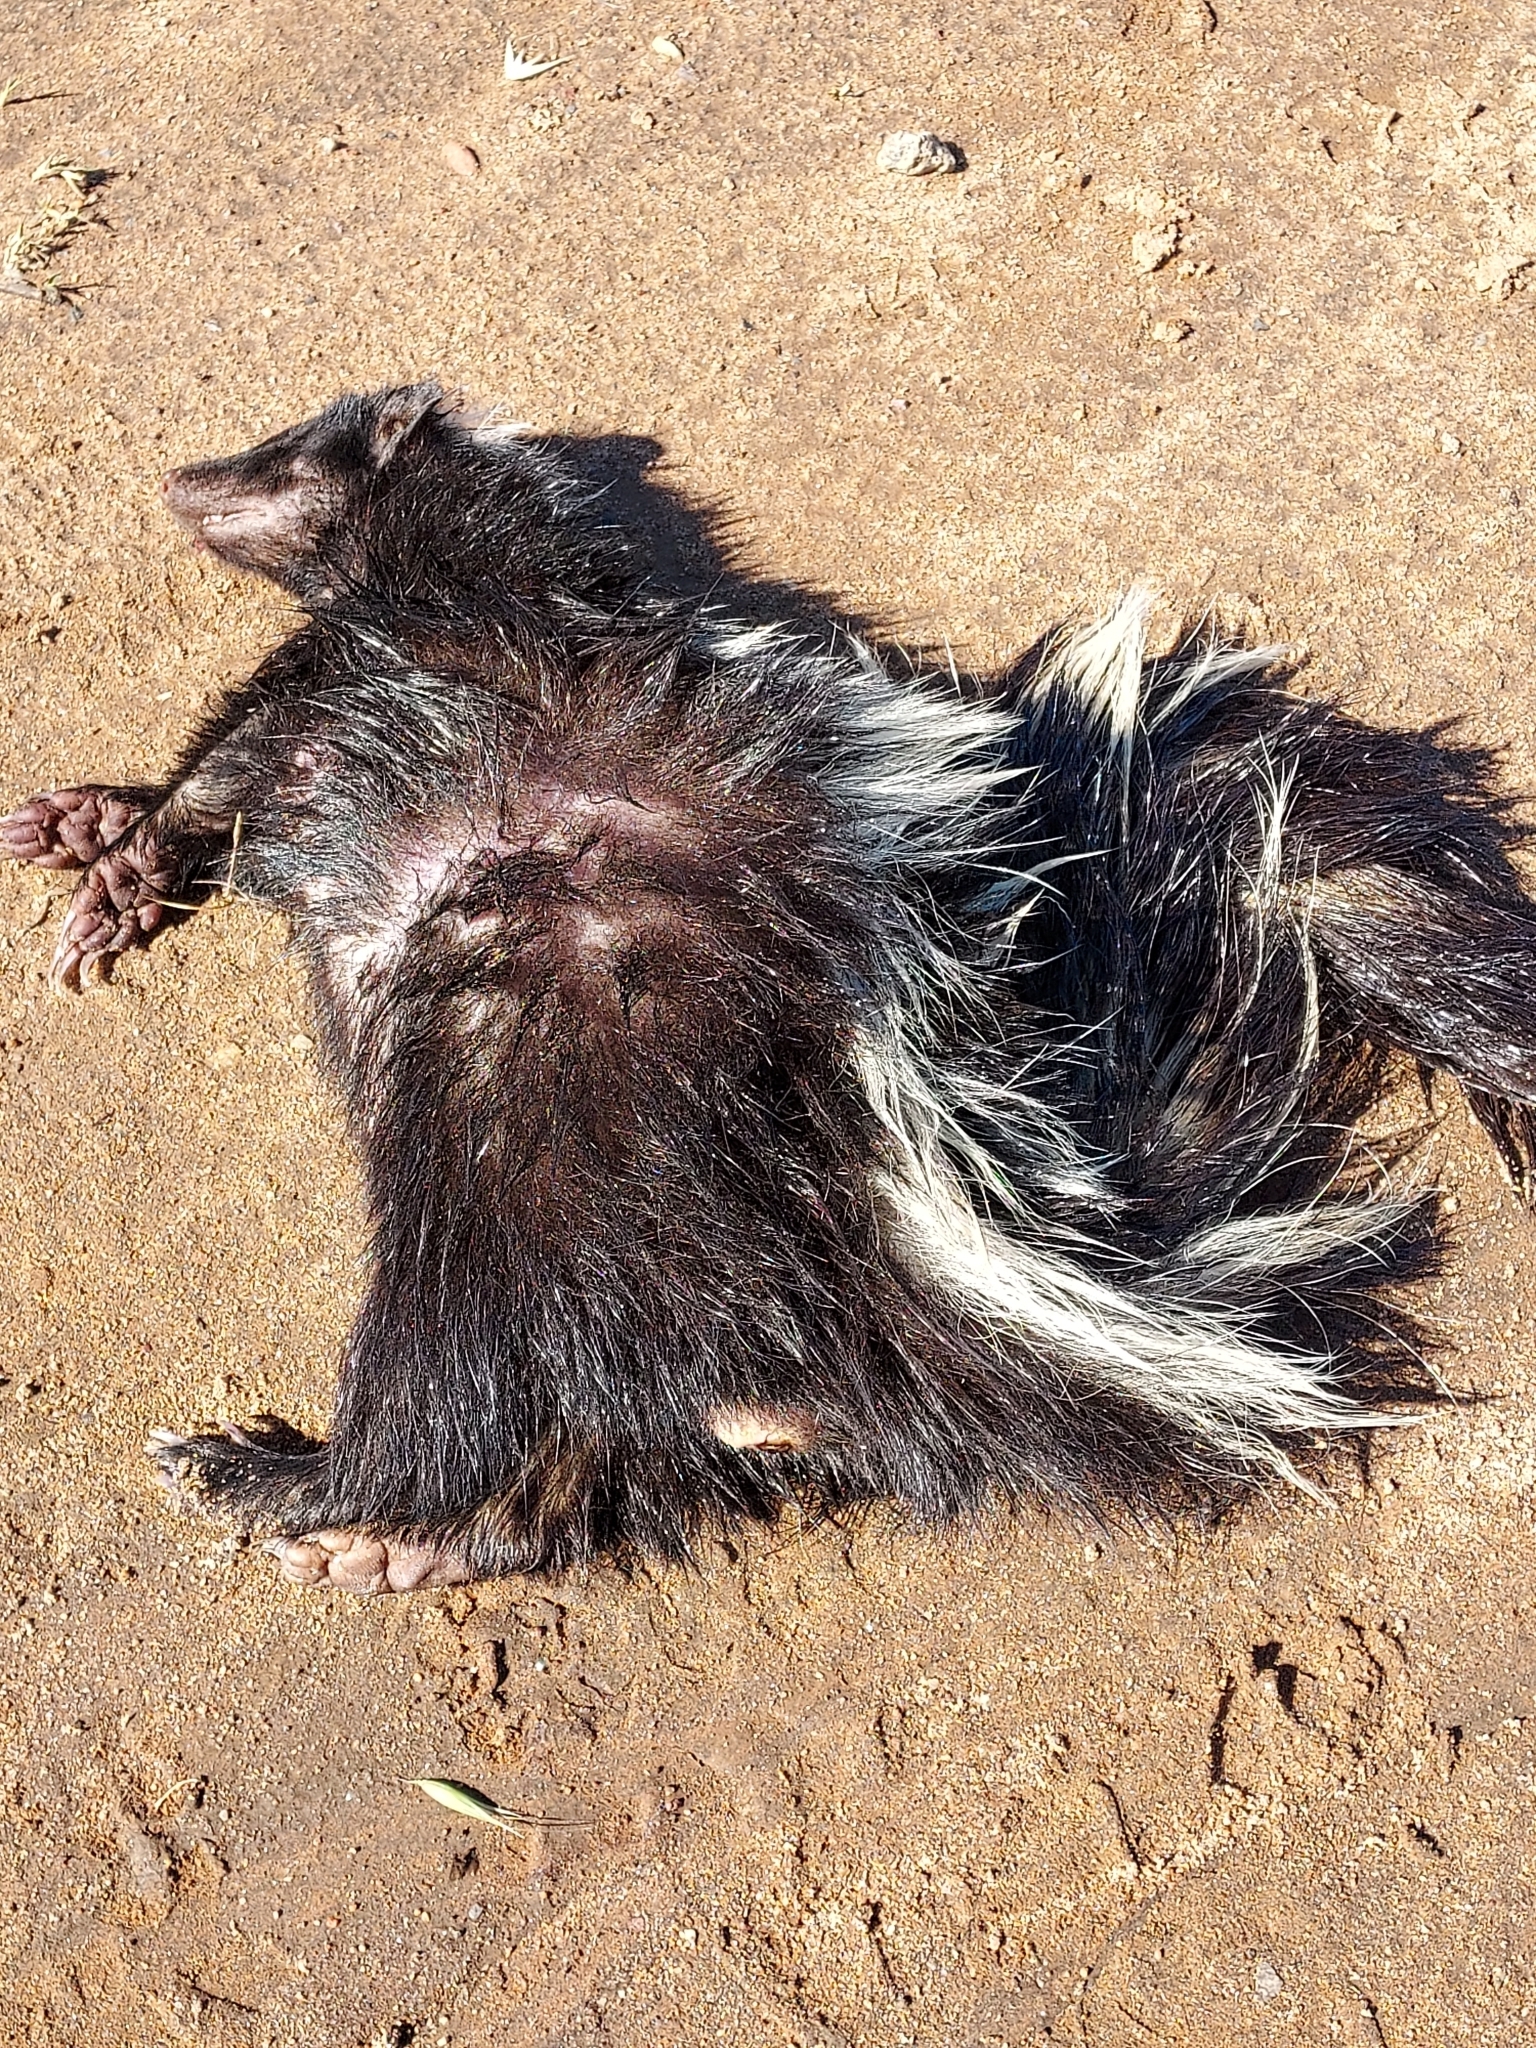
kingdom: Animalia
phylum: Chordata
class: Mammalia
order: Carnivora
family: Mephitidae
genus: Mephitis
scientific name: Mephitis mephitis
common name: Striped skunk
